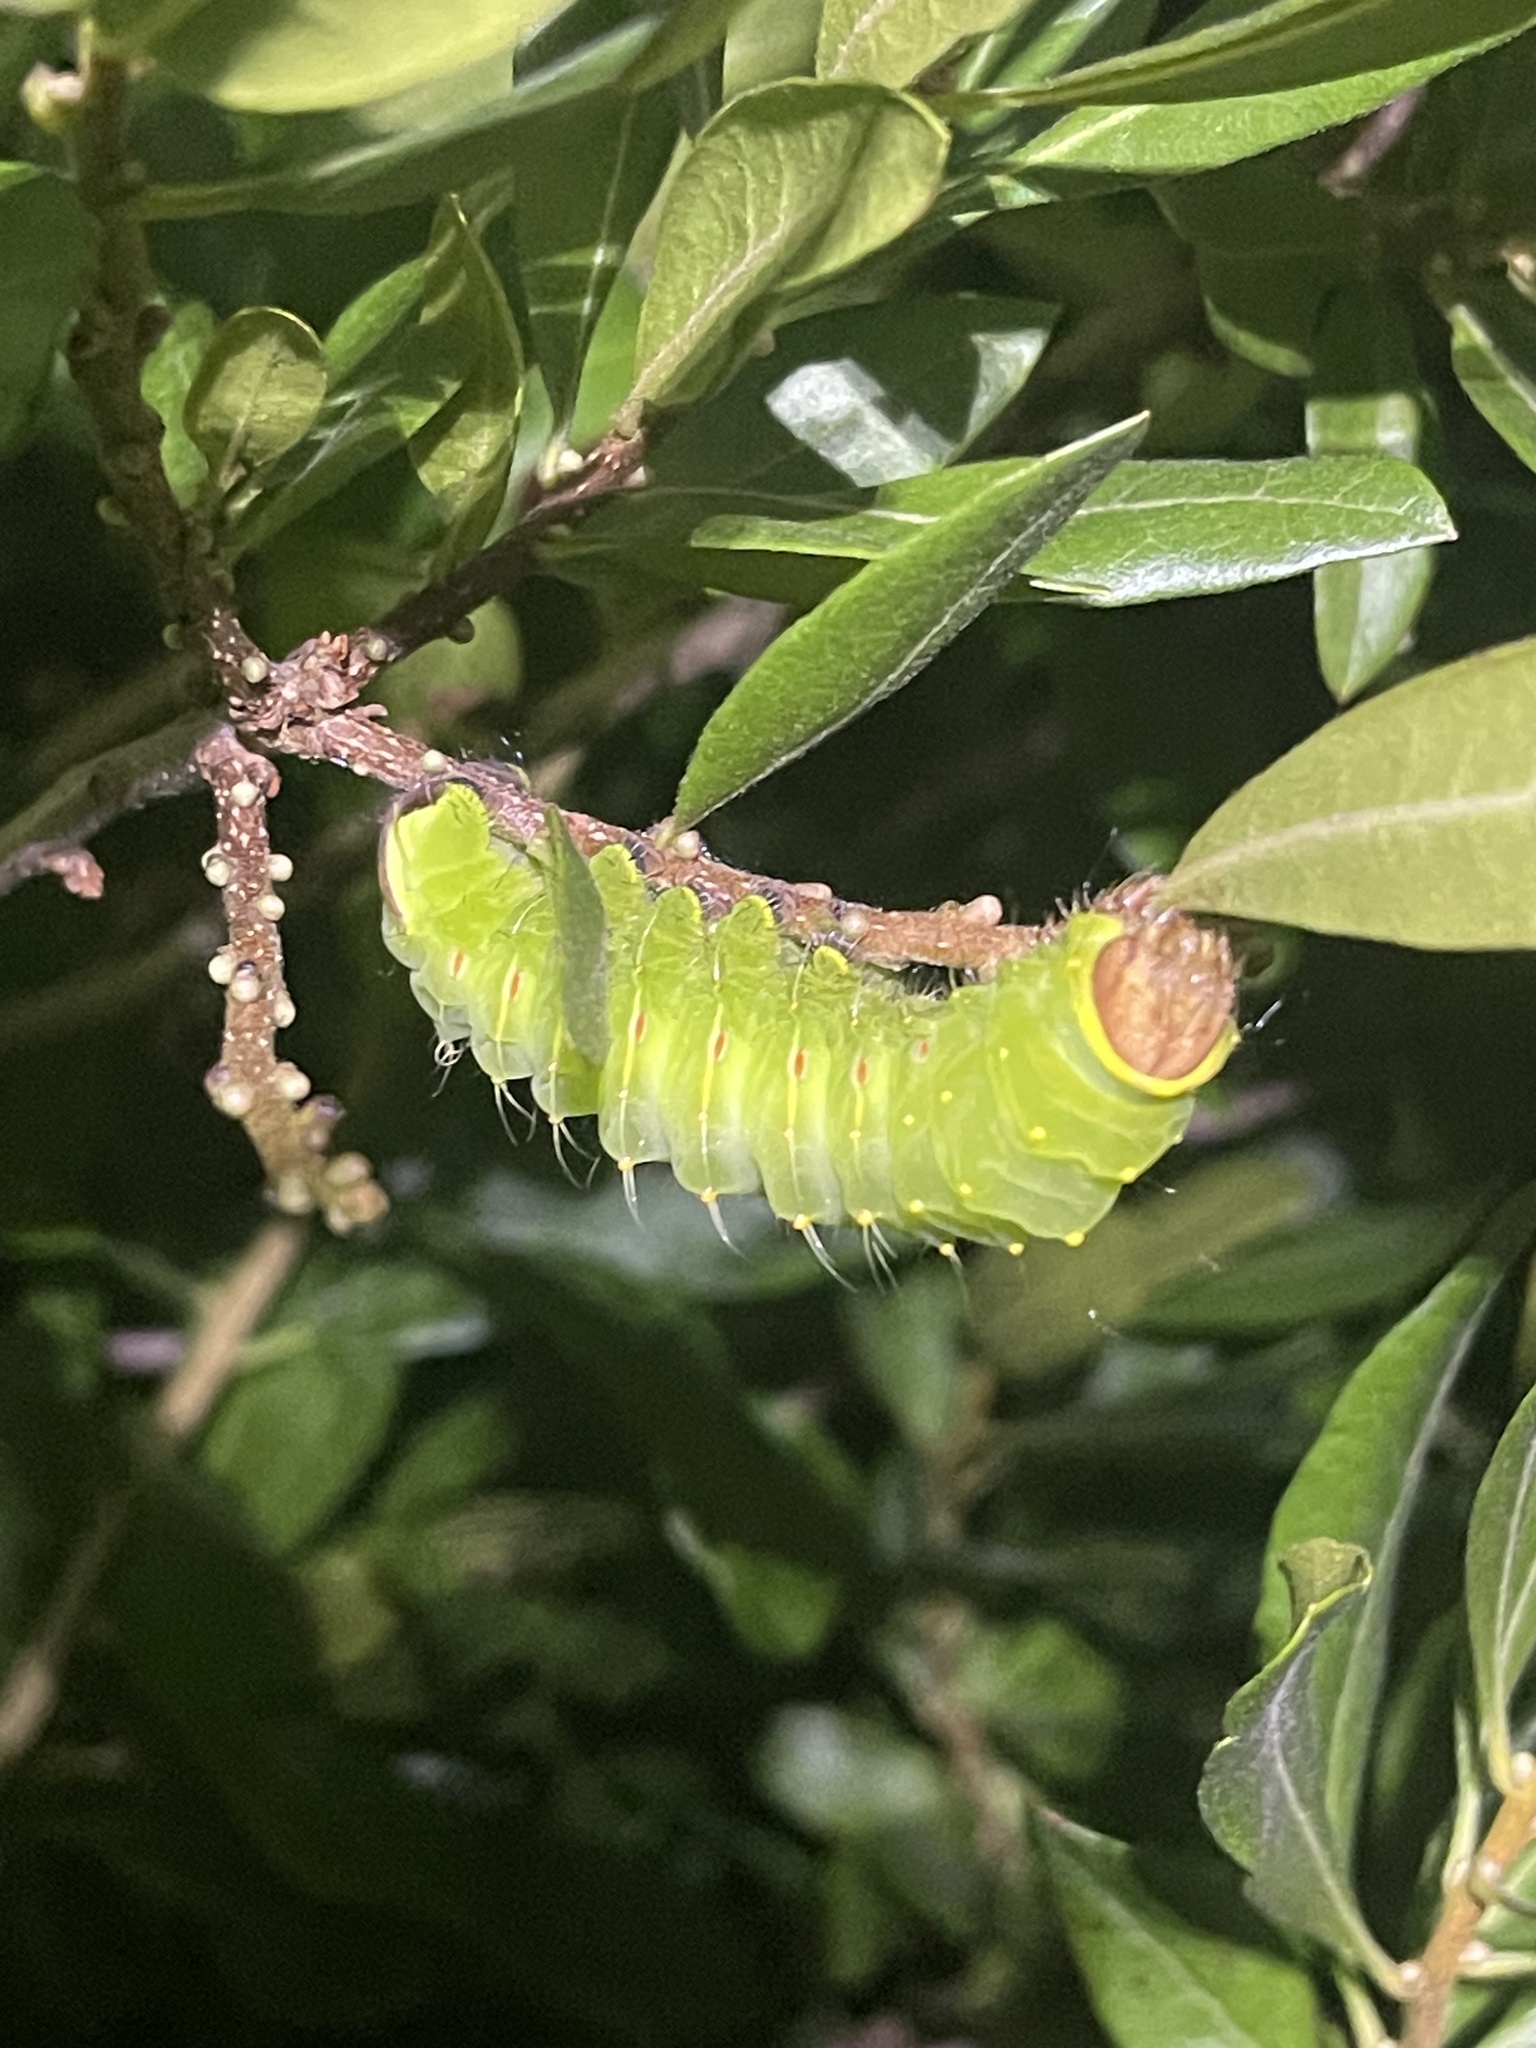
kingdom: Animalia
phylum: Arthropoda
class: Insecta
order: Lepidoptera
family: Saturniidae
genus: Antheraea
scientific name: Antheraea polyphemus
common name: Polyphemus moth
